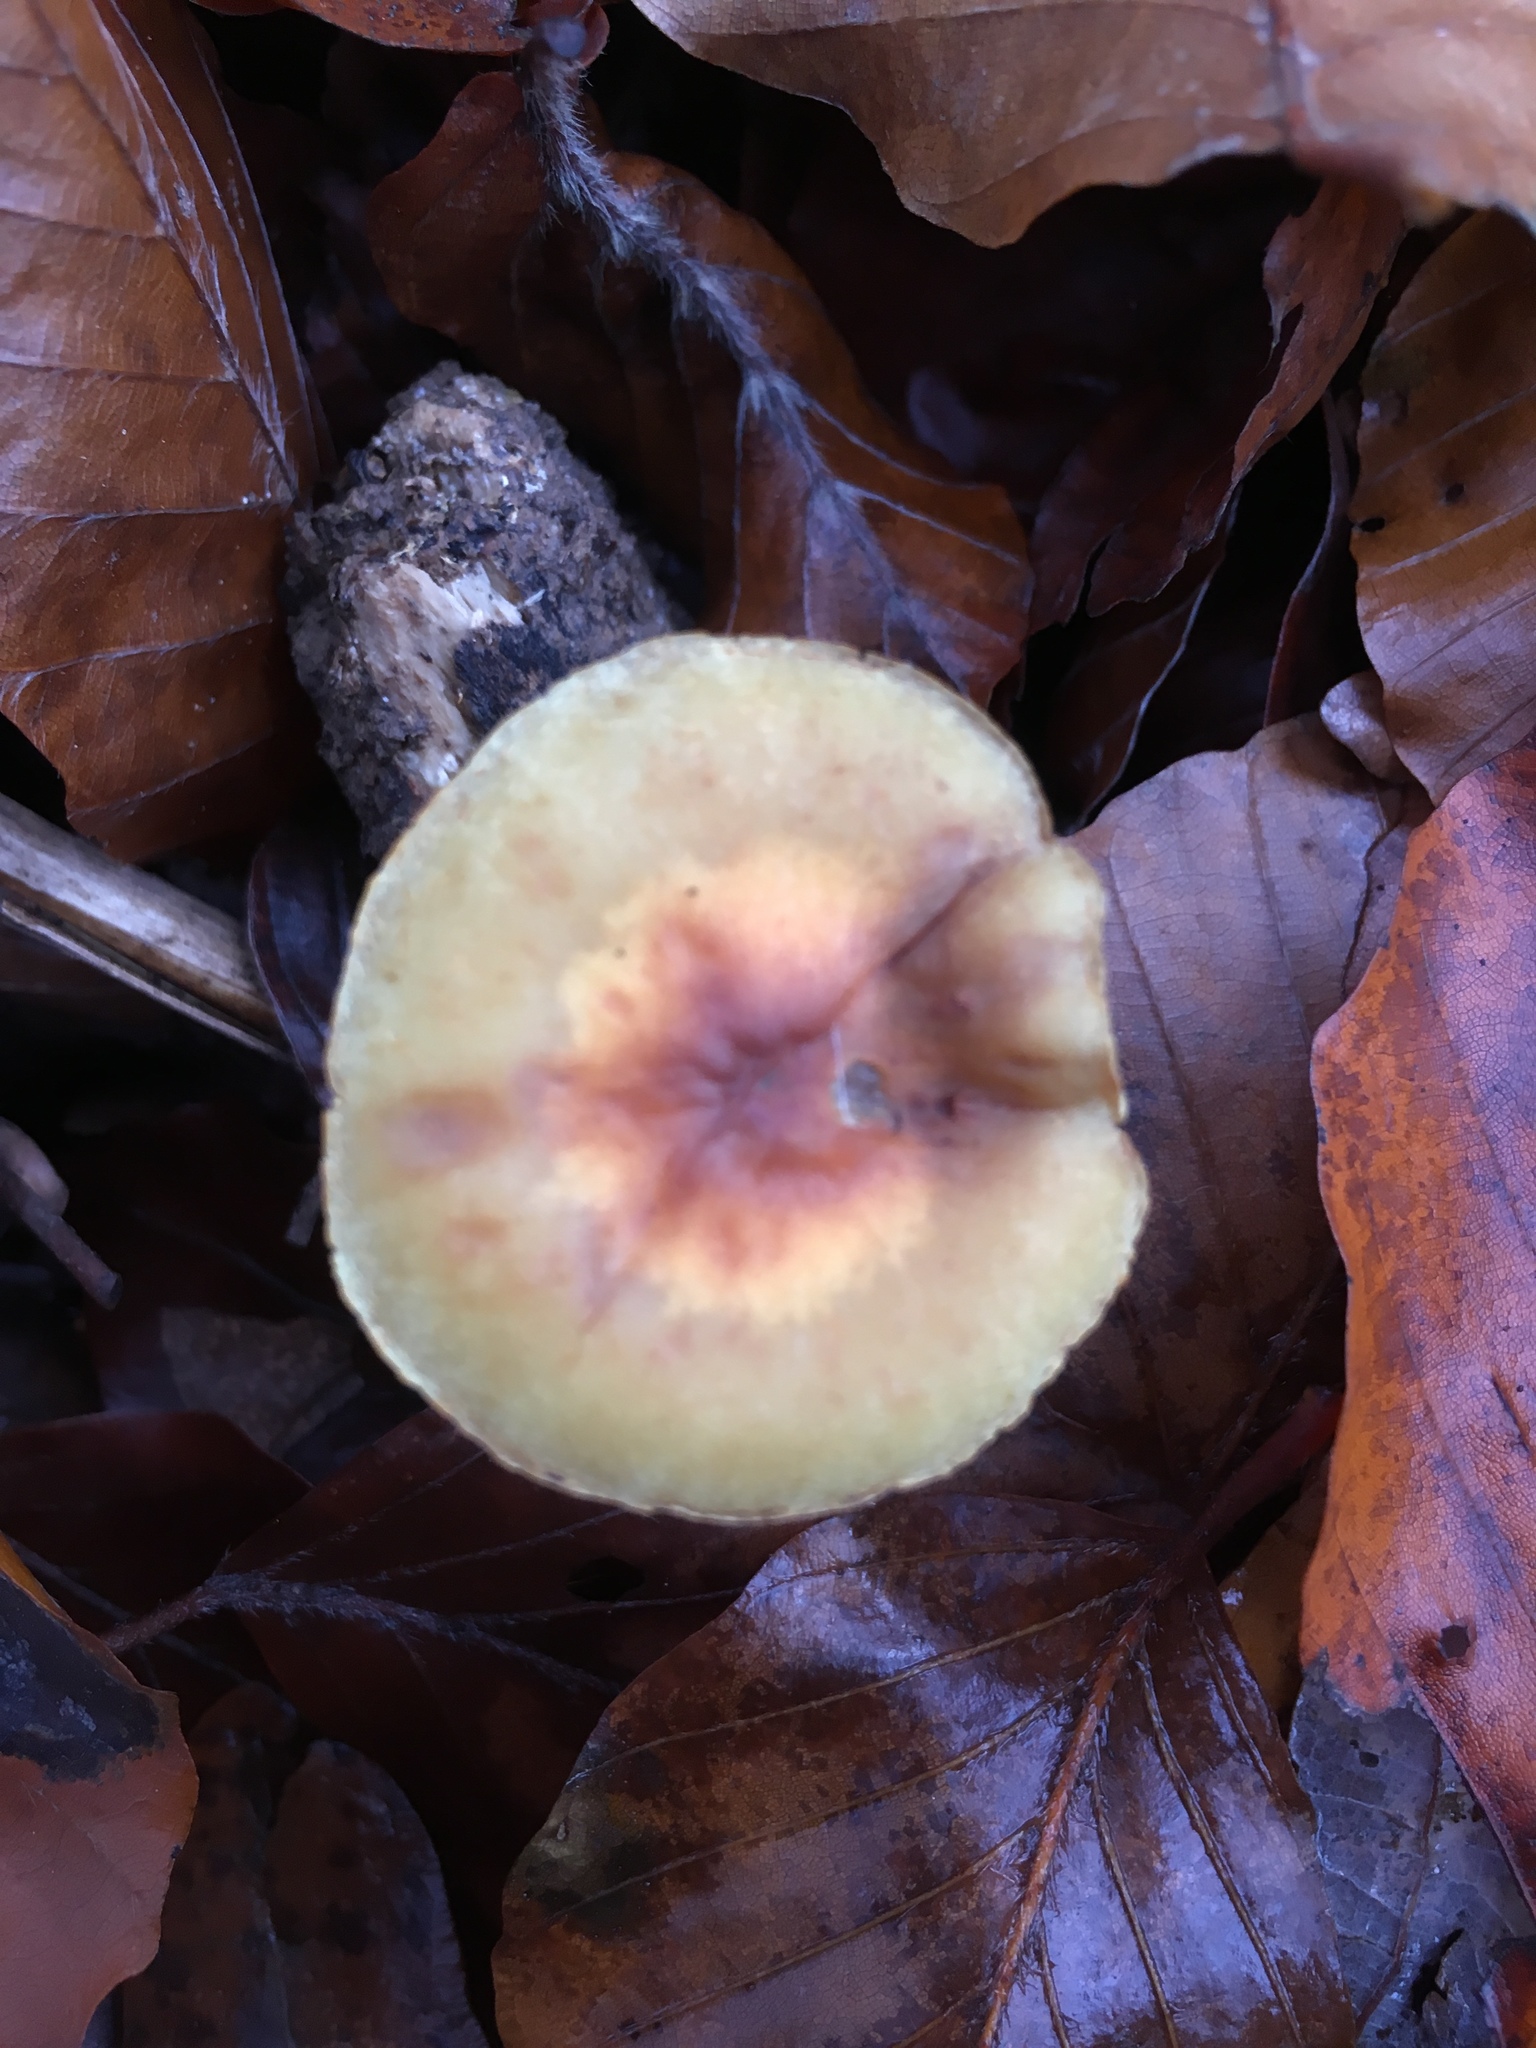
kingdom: Fungi
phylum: Basidiomycota
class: Agaricomycetes
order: Agaricales
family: Strophariaceae
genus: Hypholoma
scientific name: Hypholoma fasciculare
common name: Sulphur tuft
